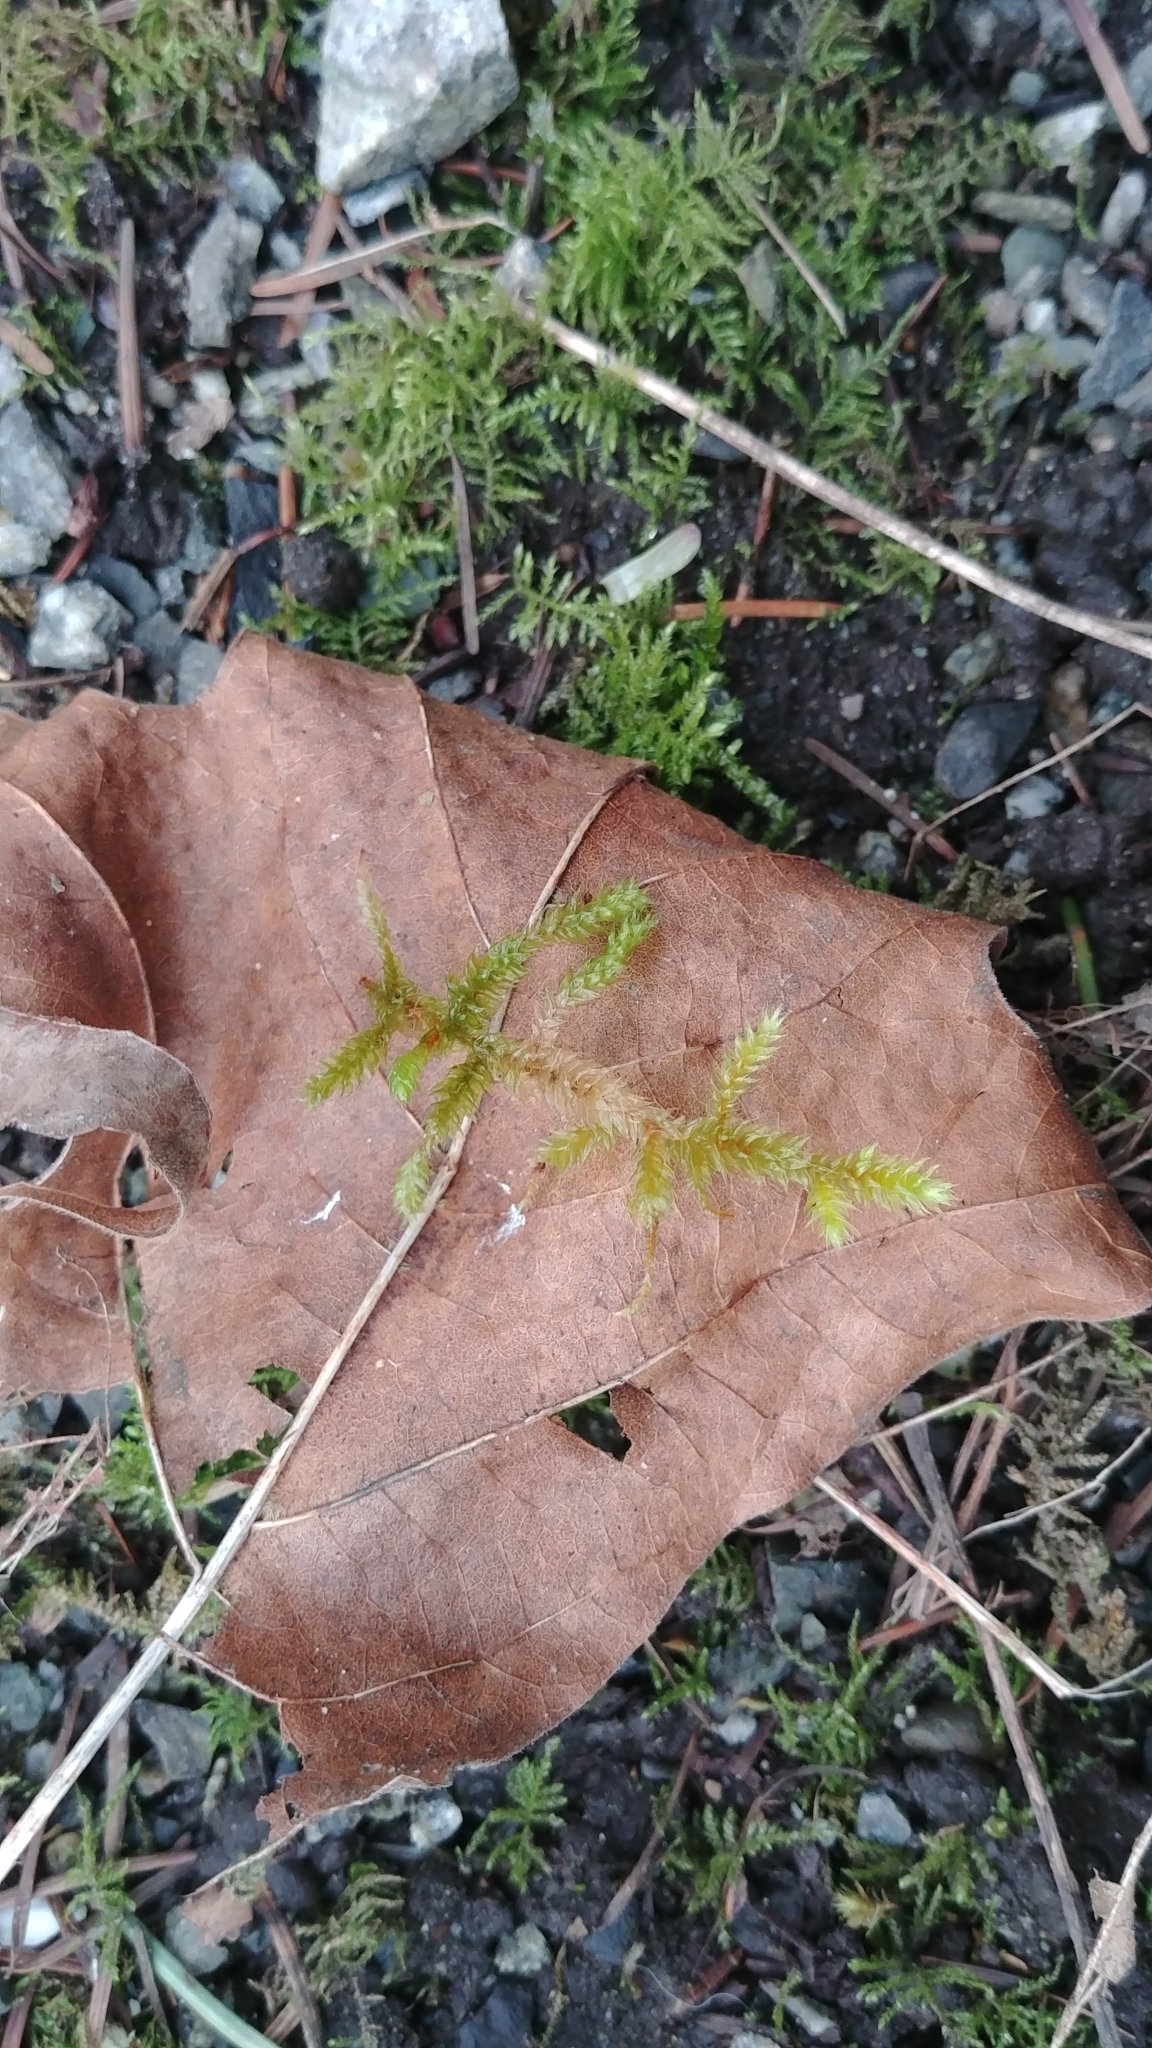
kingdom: Plantae
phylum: Bryophyta
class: Bryopsida
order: Hypnales
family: Antitrichiaceae
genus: Antitrichia
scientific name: Antitrichia curtipendula
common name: Pendulous wing-moss
